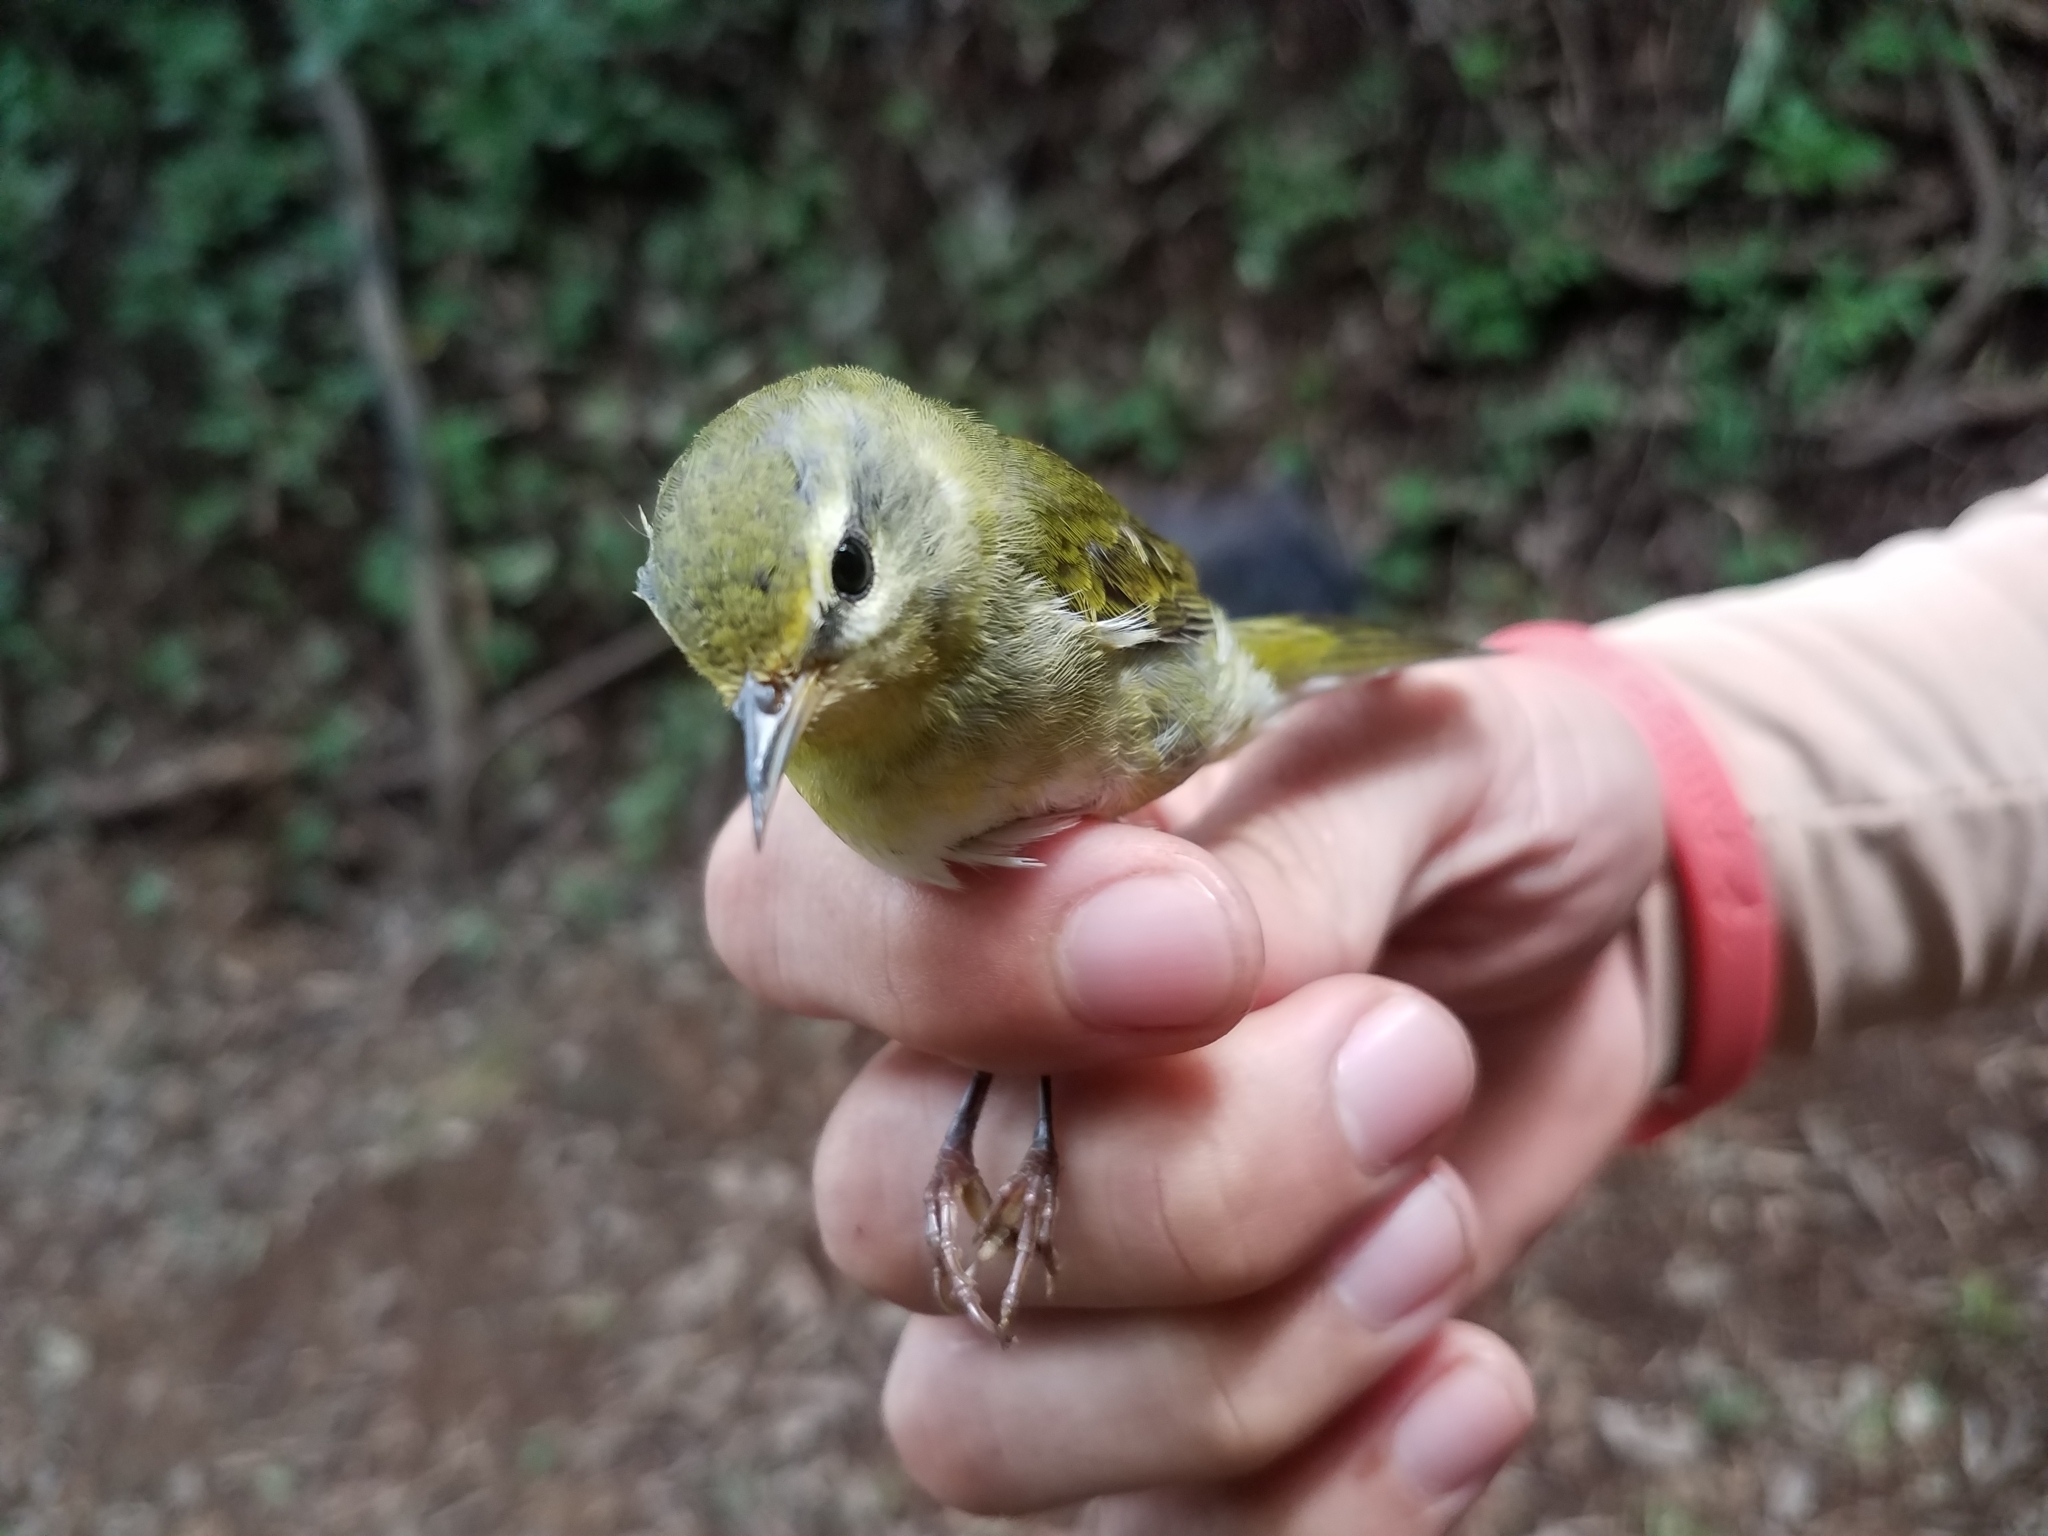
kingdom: Animalia
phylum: Chordata
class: Aves
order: Passeriformes
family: Parulidae
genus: Leiothlypis
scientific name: Leiothlypis peregrina
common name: Tennessee warbler
